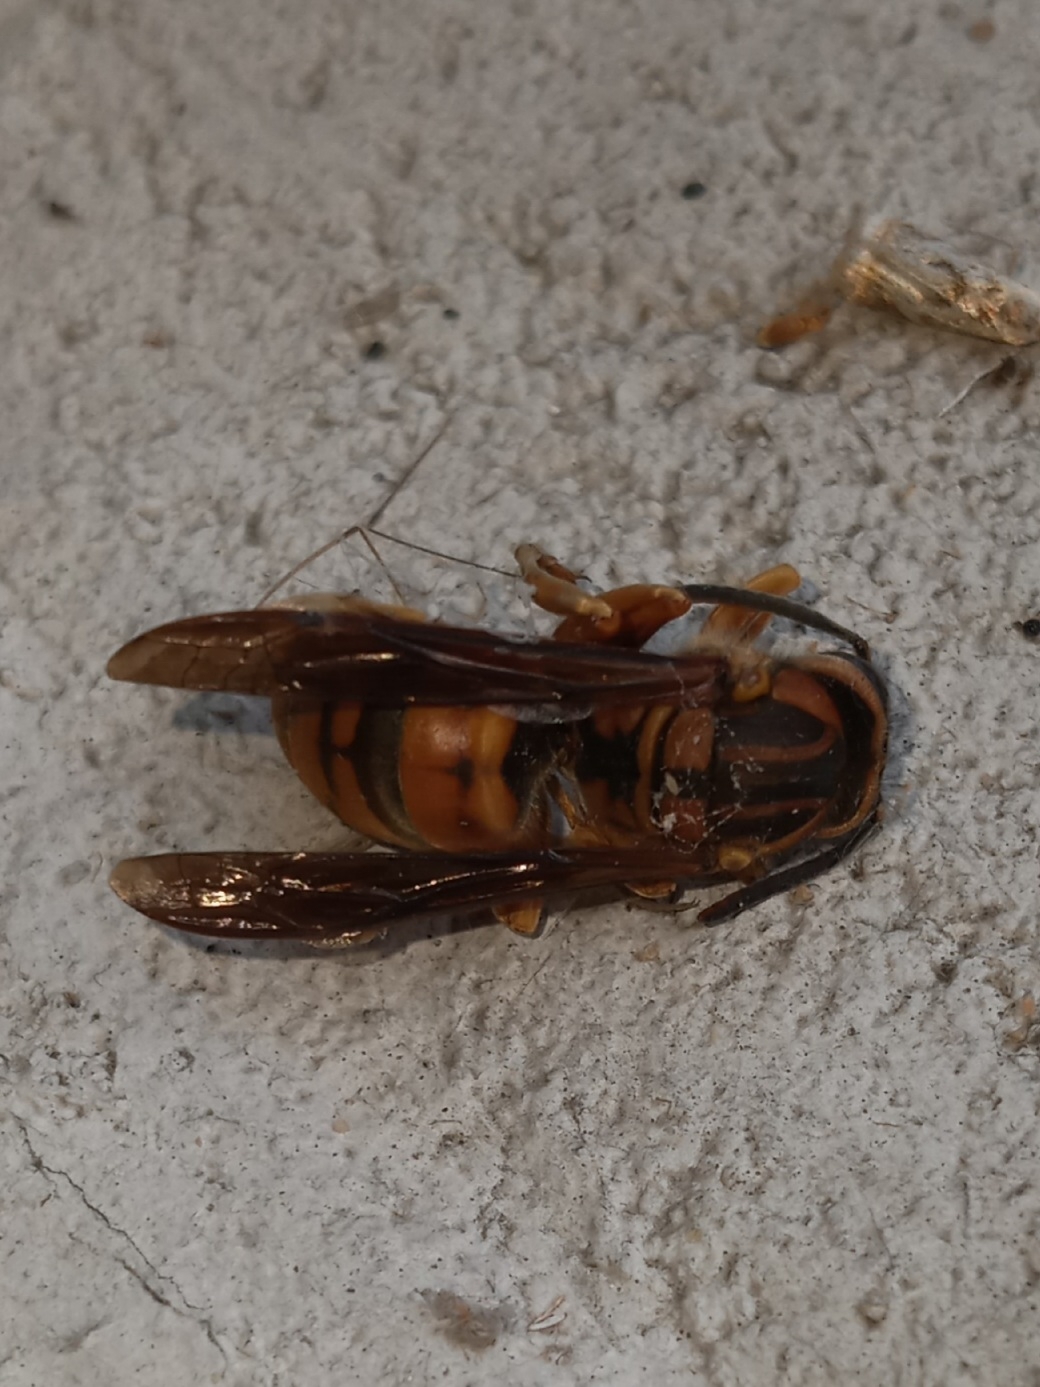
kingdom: Animalia
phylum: Arthropoda
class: Insecta
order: Hymenoptera
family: Vespidae
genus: Vespula
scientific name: Vespula squamosa
